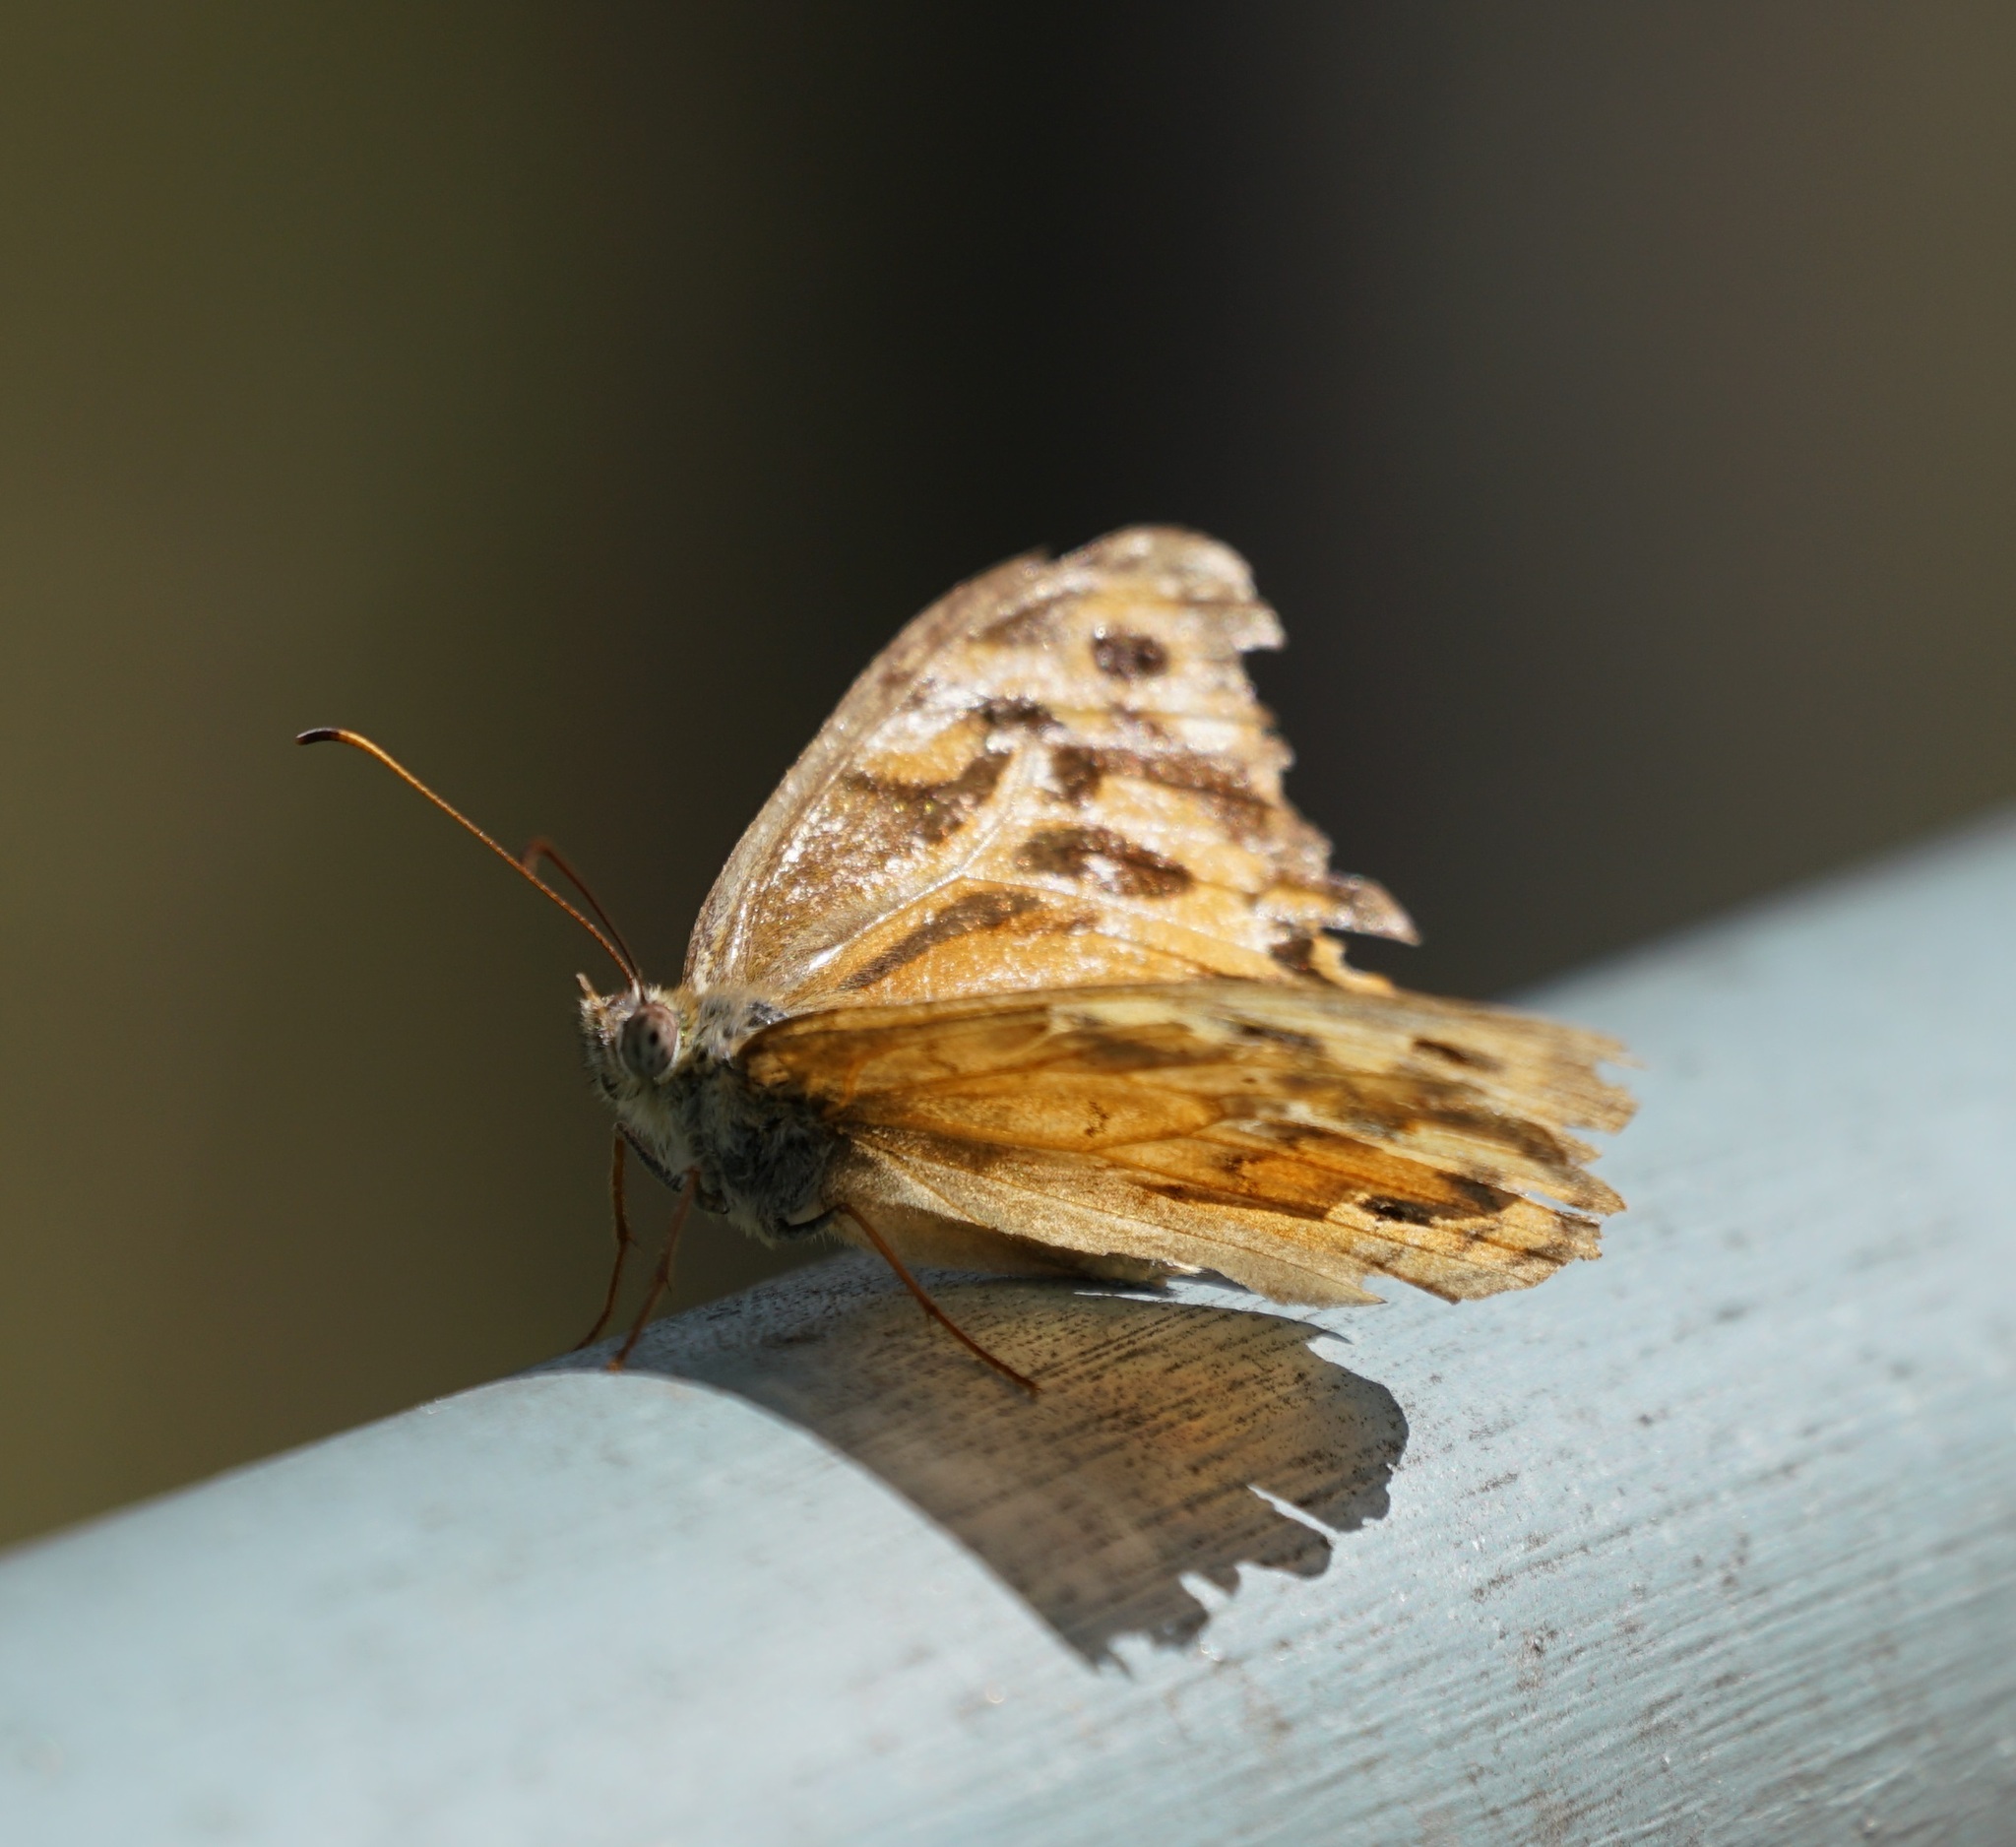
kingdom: Animalia
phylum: Arthropoda
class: Insecta
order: Lepidoptera
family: Nymphalidae
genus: Heteronympha
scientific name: Heteronympha merope
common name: Common brown
